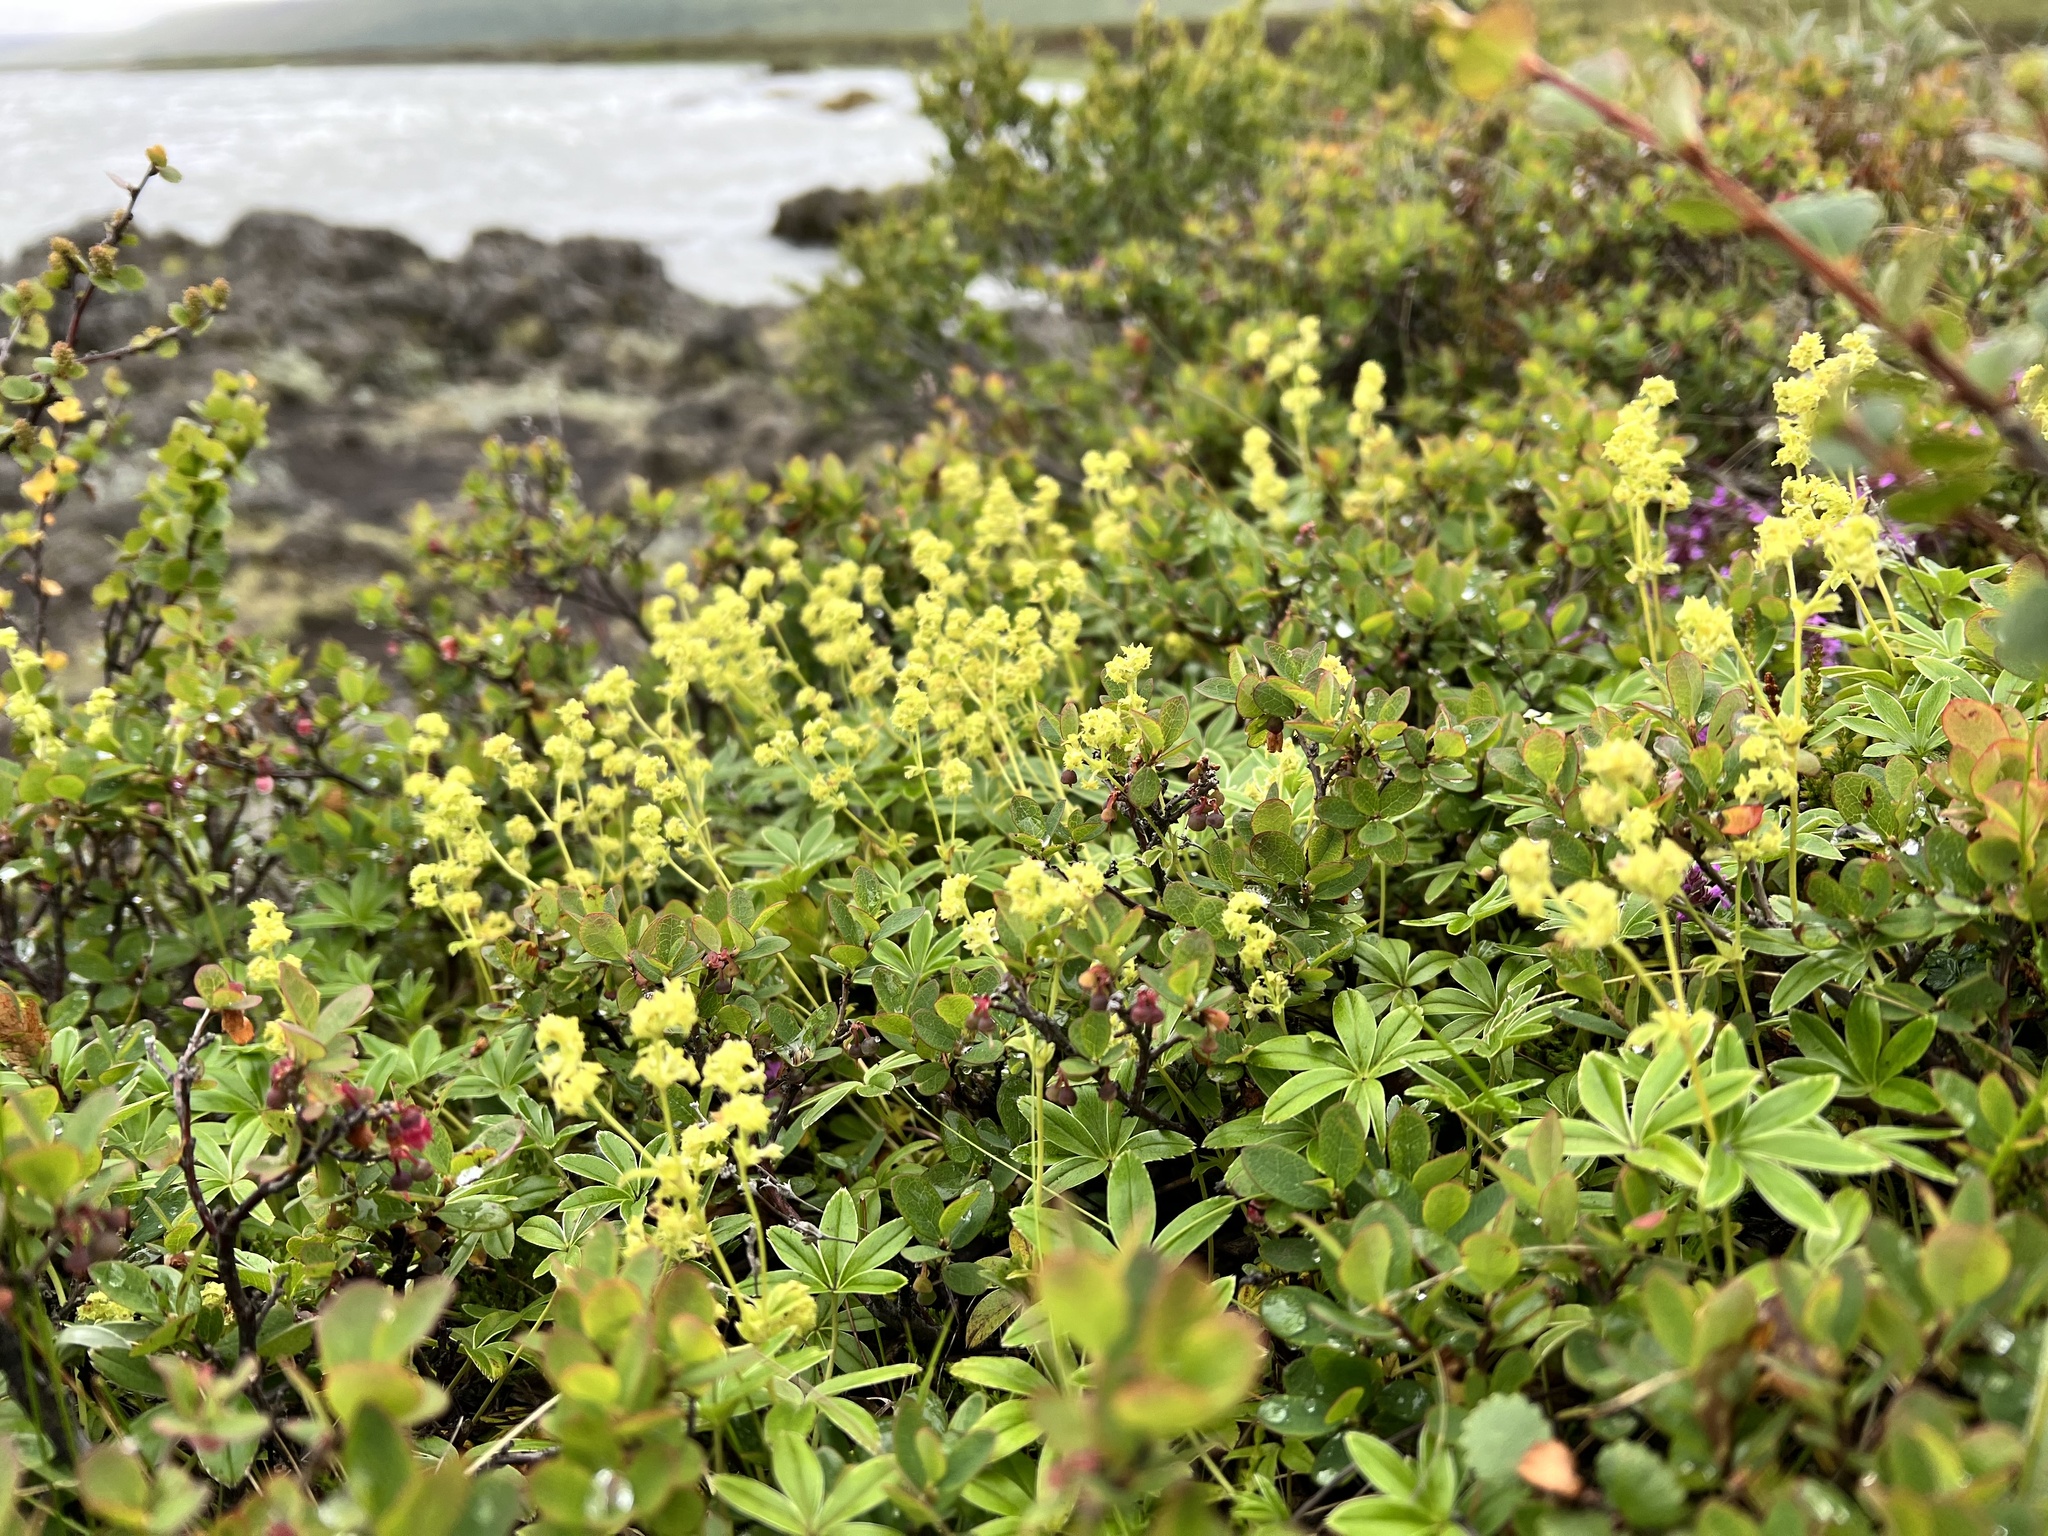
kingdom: Plantae
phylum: Tracheophyta
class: Magnoliopsida
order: Rosales
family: Rosaceae
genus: Alchemilla
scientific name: Alchemilla alpina
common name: Alpine lady's-mantle
